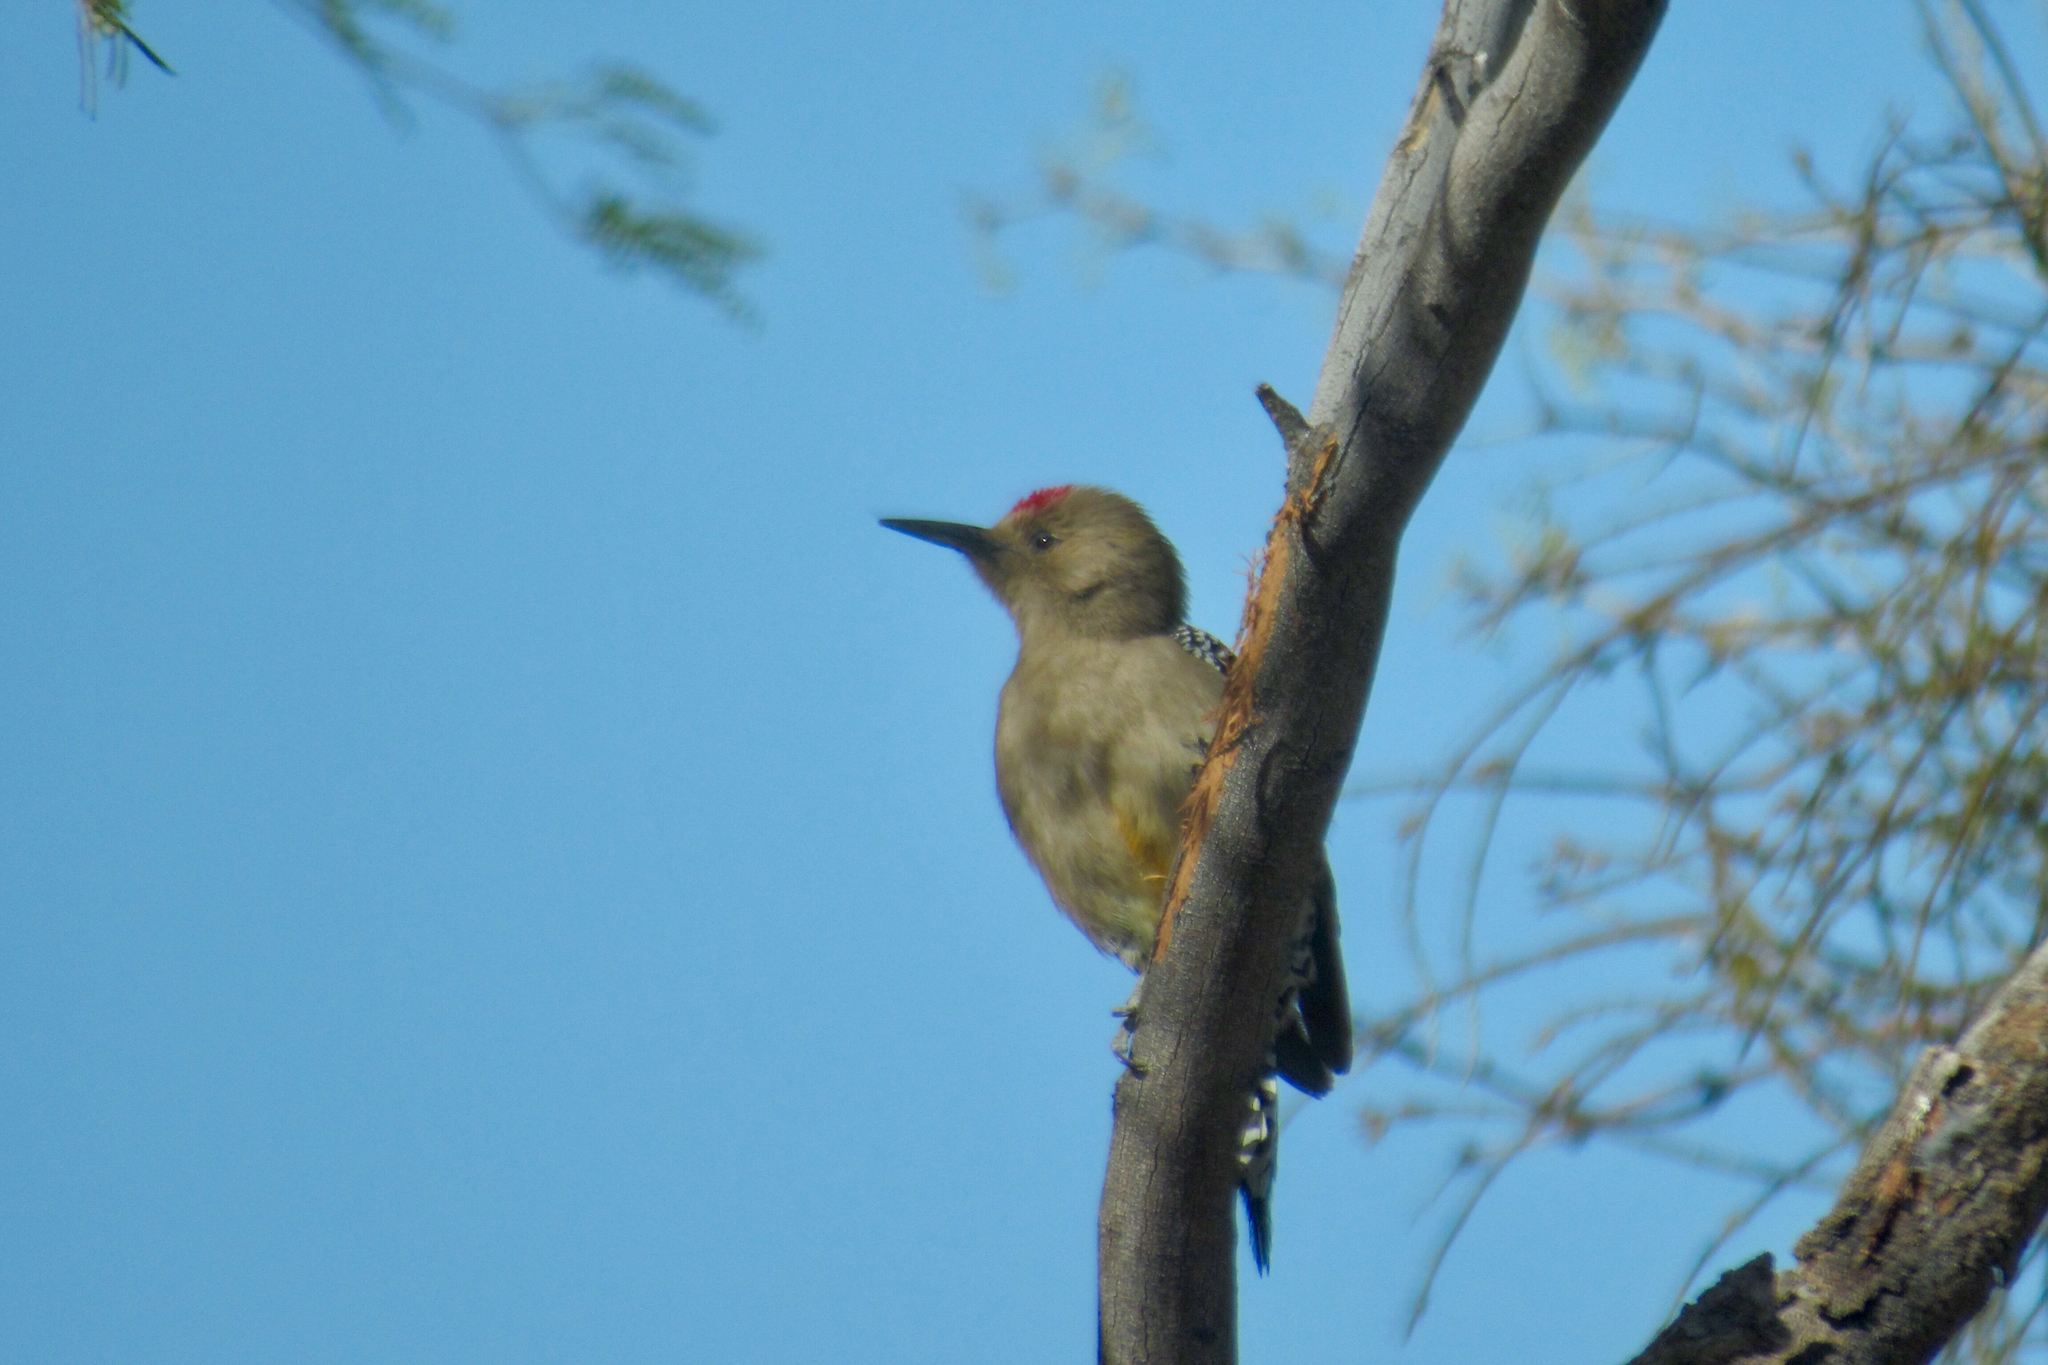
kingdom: Animalia
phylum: Chordata
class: Aves
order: Piciformes
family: Picidae
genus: Melanerpes
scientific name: Melanerpes uropygialis
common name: Gila woodpecker
